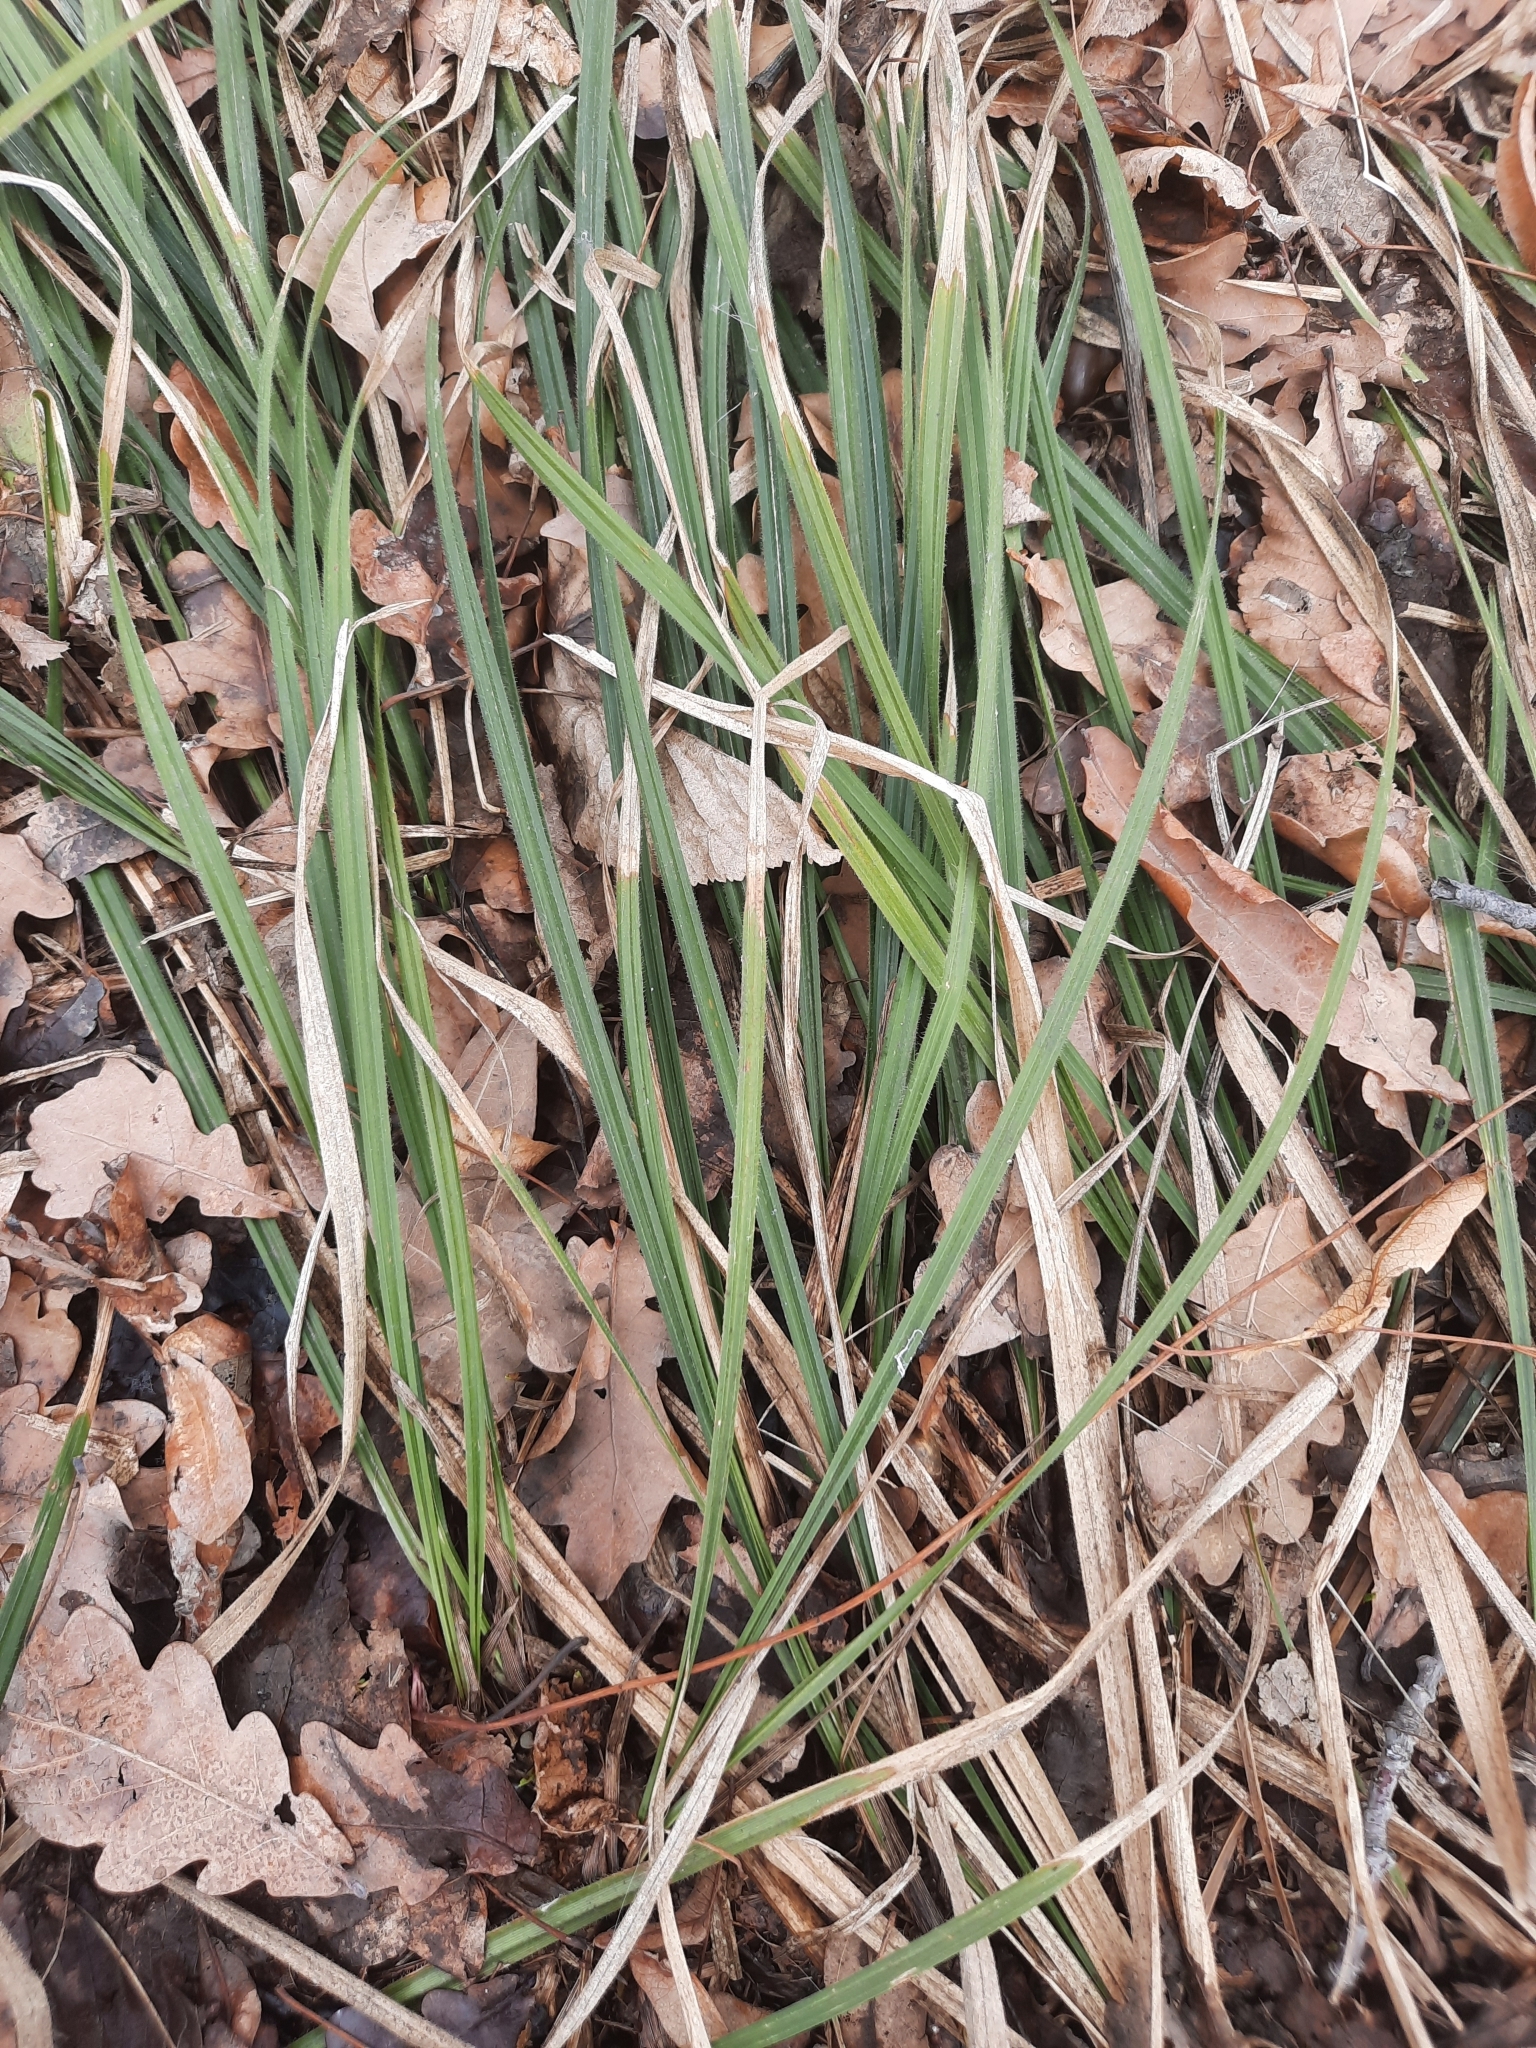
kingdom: Plantae
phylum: Tracheophyta
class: Liliopsida
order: Poales
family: Cyperaceae
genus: Carex
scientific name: Carex pilosa
